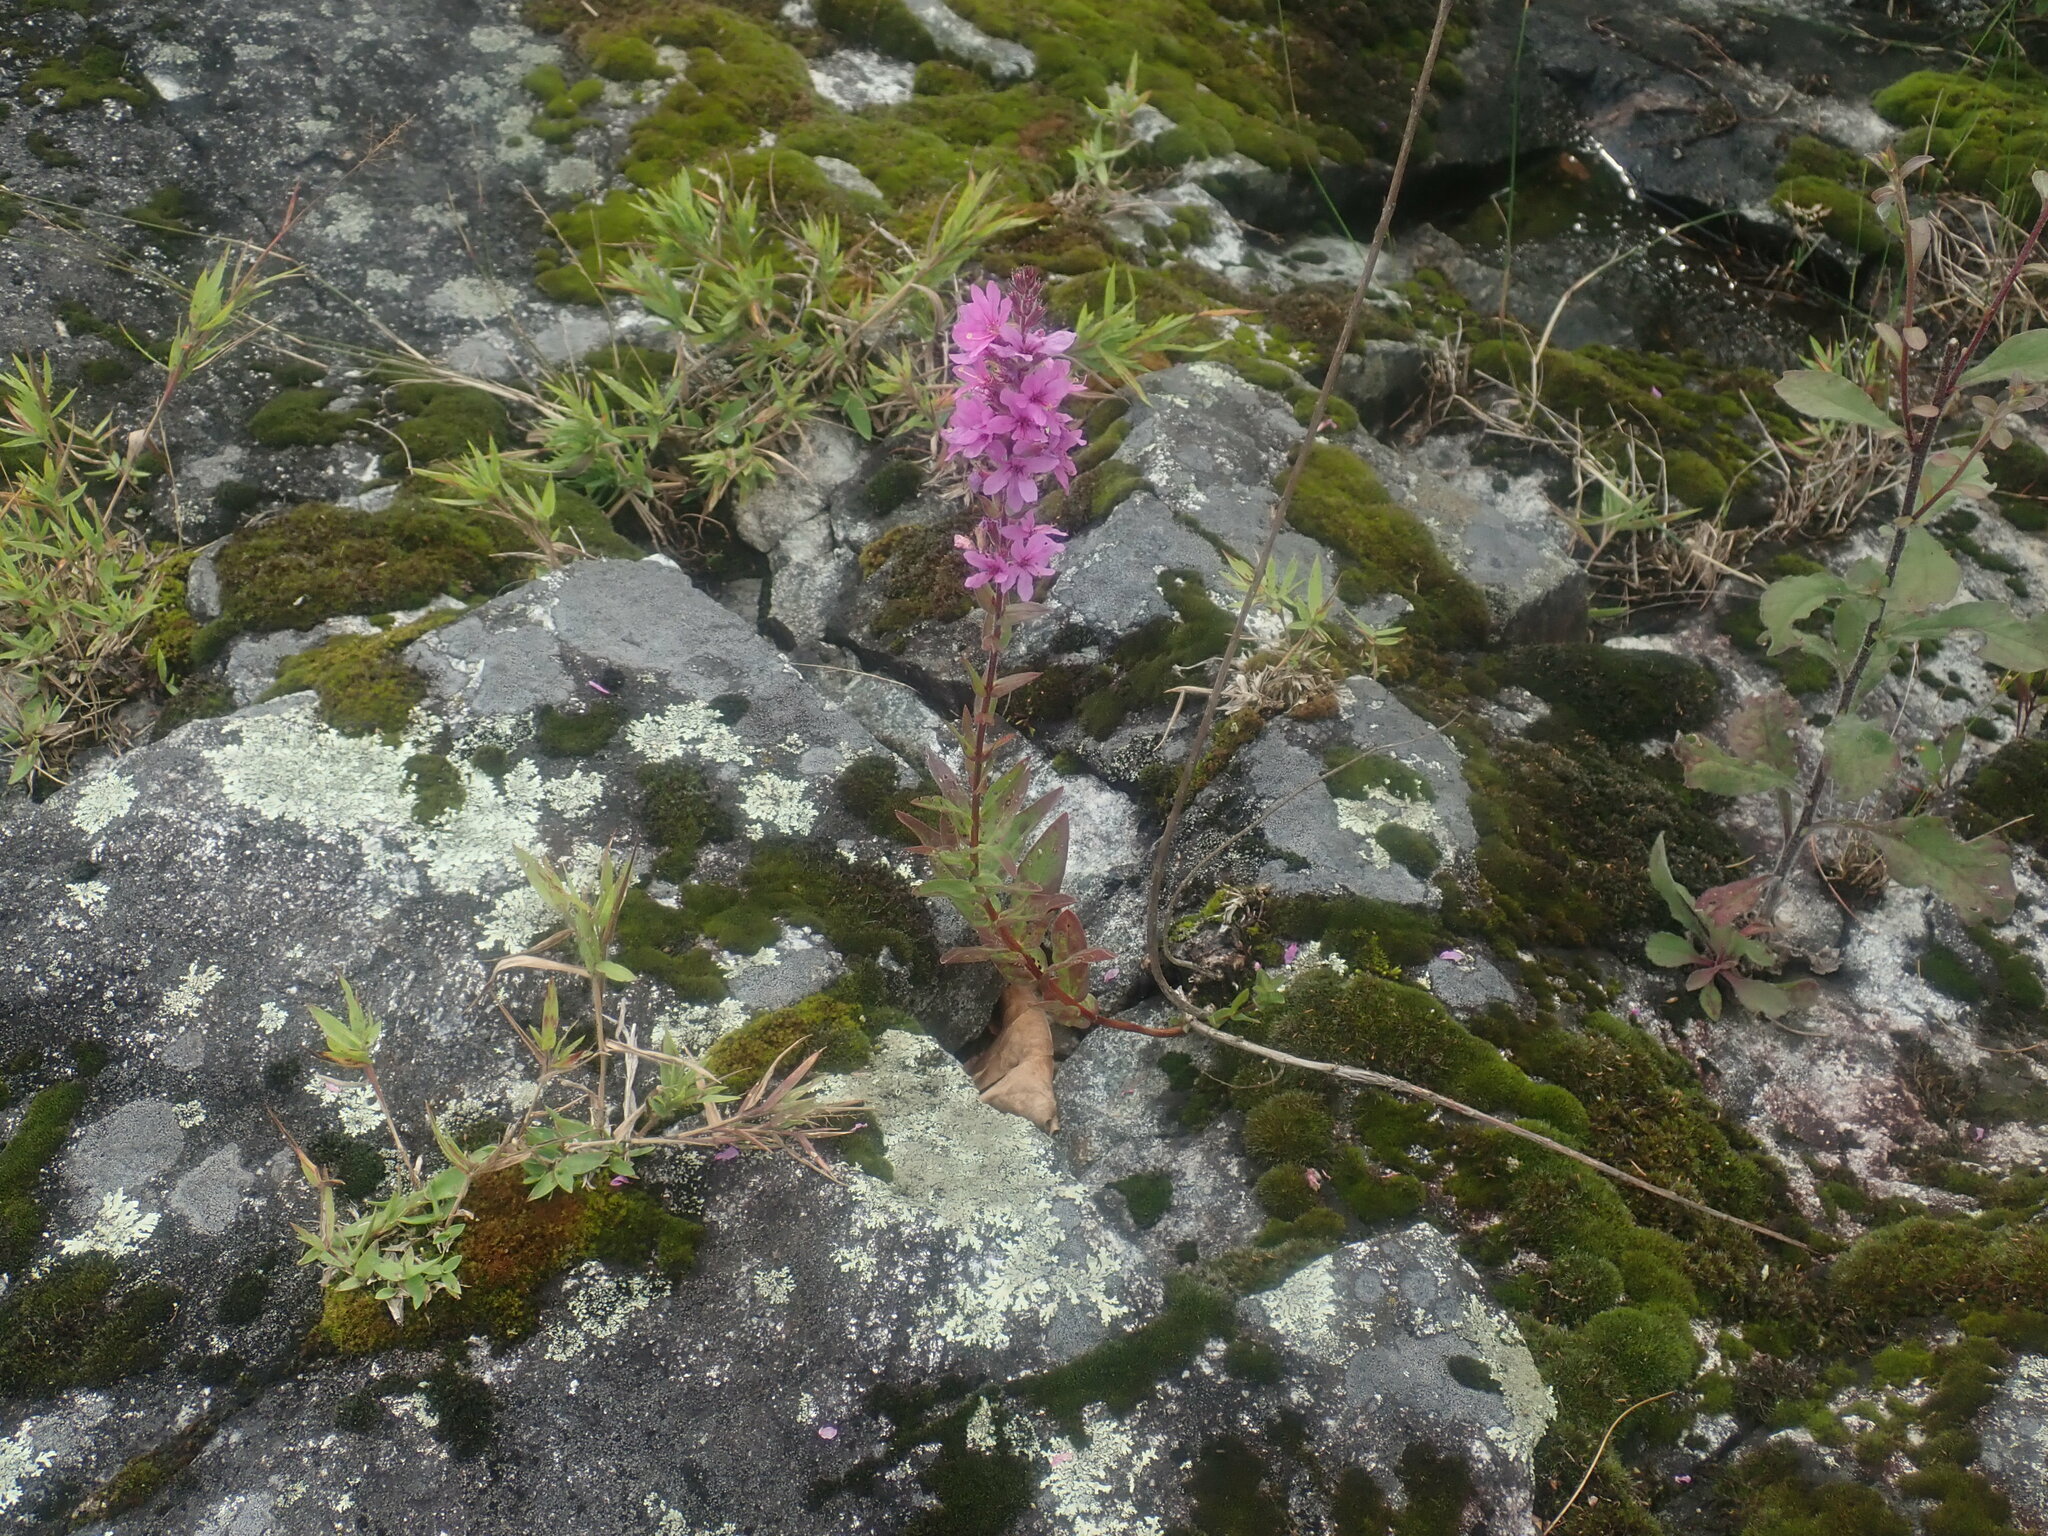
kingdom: Plantae
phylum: Tracheophyta
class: Magnoliopsida
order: Myrtales
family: Lythraceae
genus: Lythrum
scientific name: Lythrum salicaria
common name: Purple loosestrife
